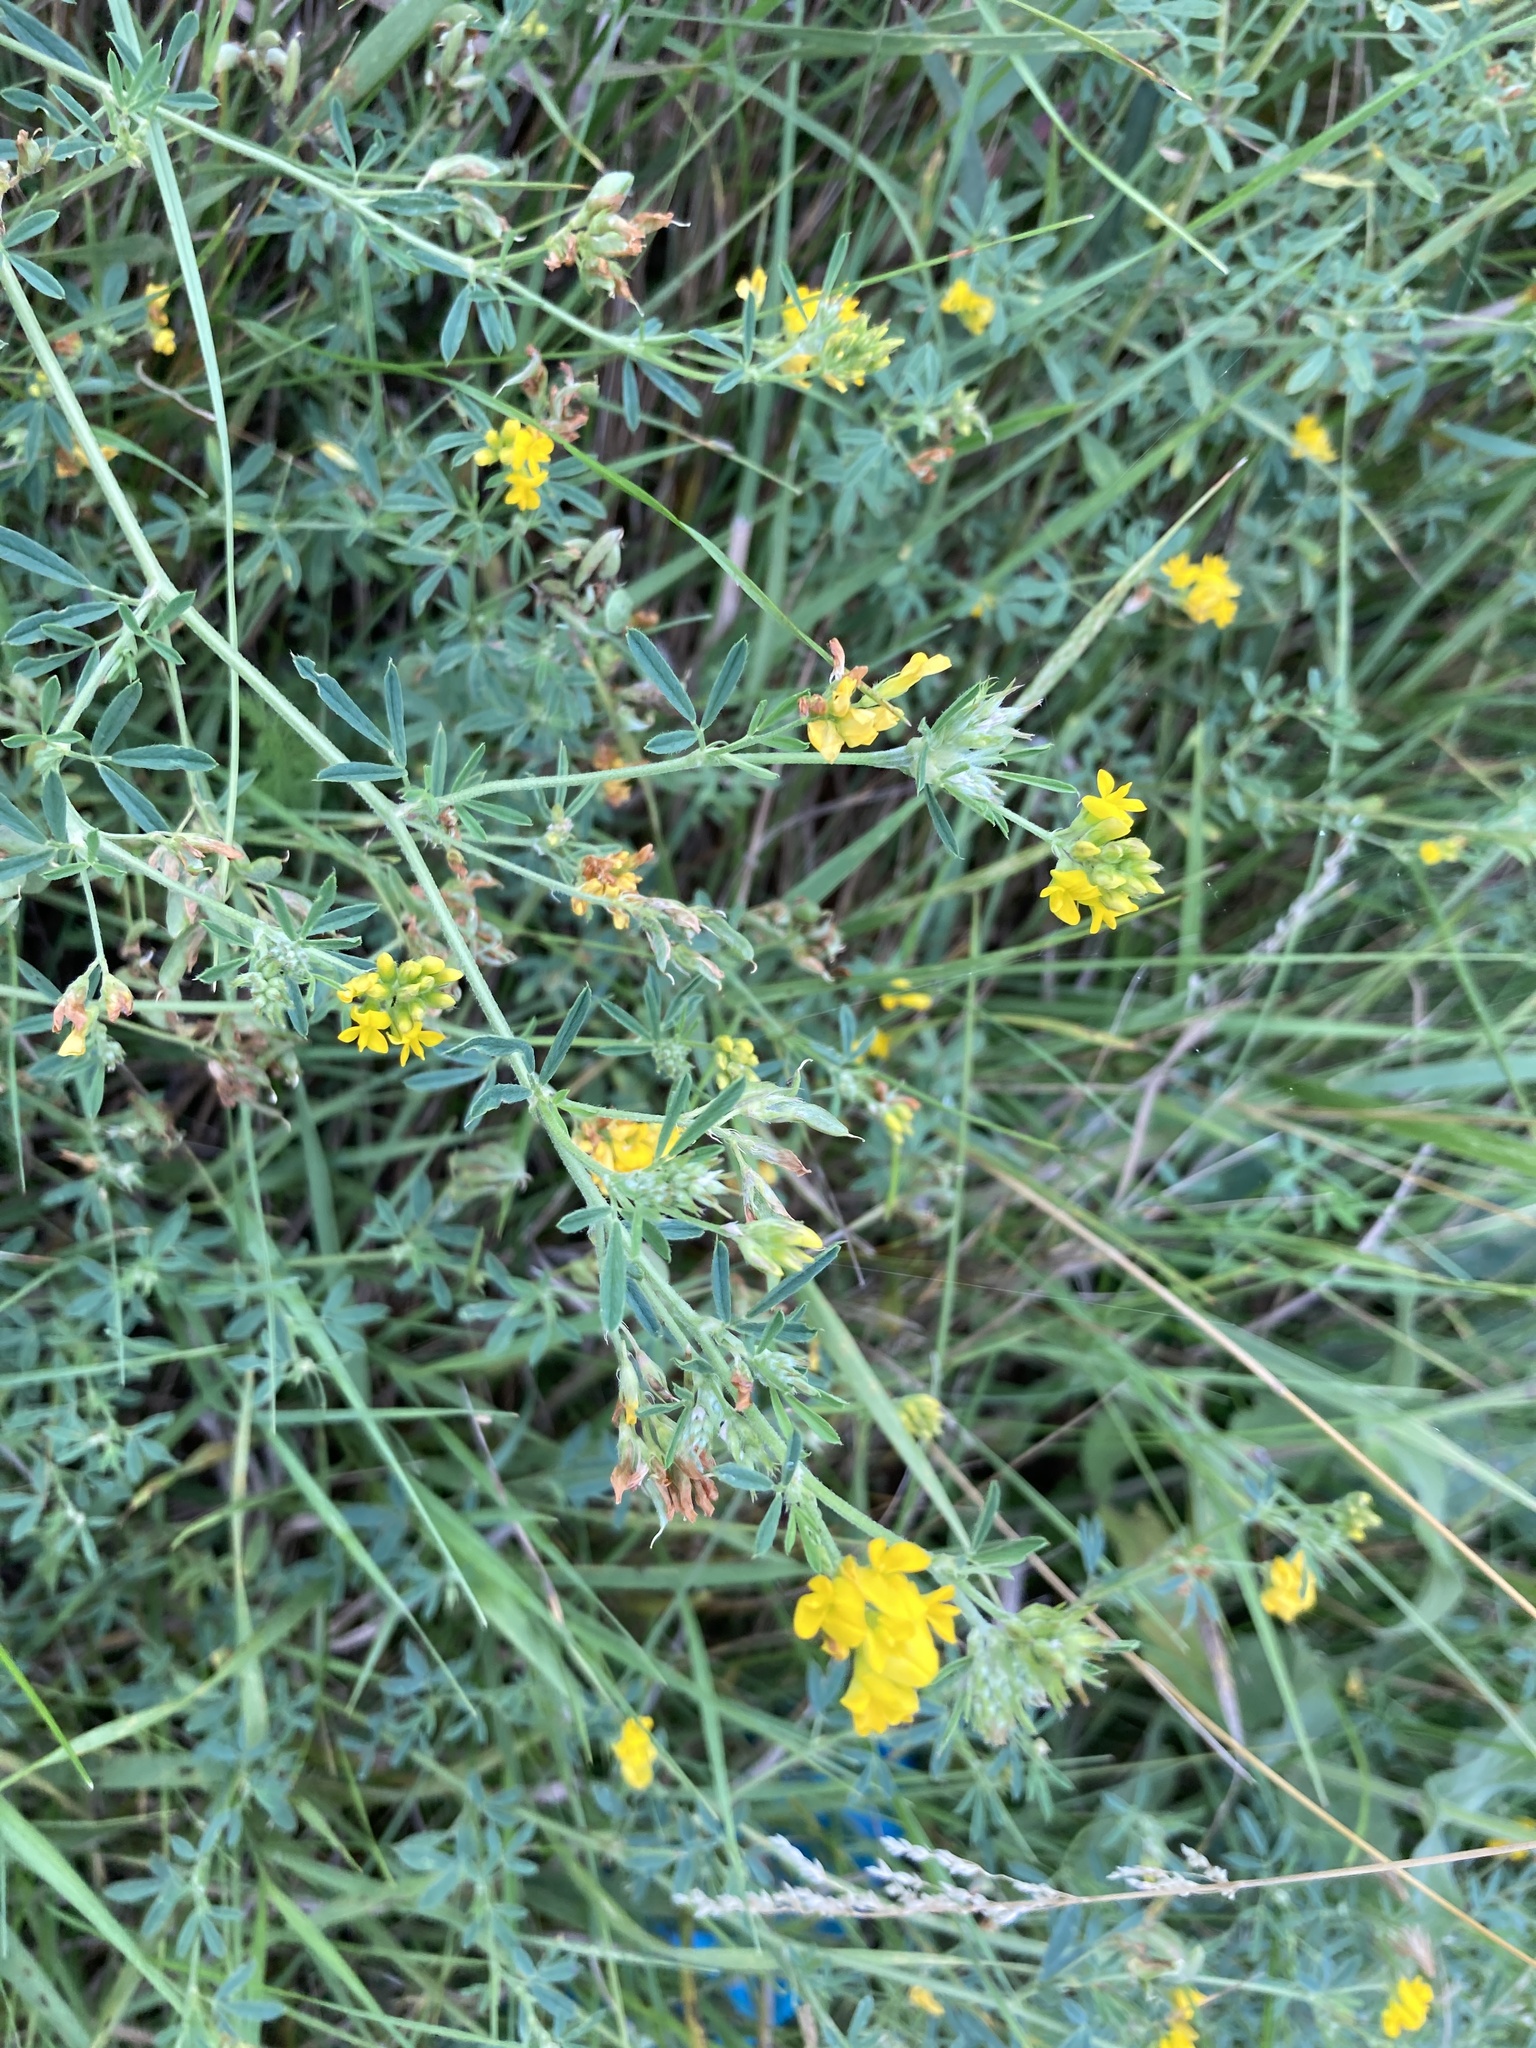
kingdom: Plantae
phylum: Tracheophyta
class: Magnoliopsida
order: Fabales
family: Fabaceae
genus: Medicago
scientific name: Medicago falcata
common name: Sickle medick
